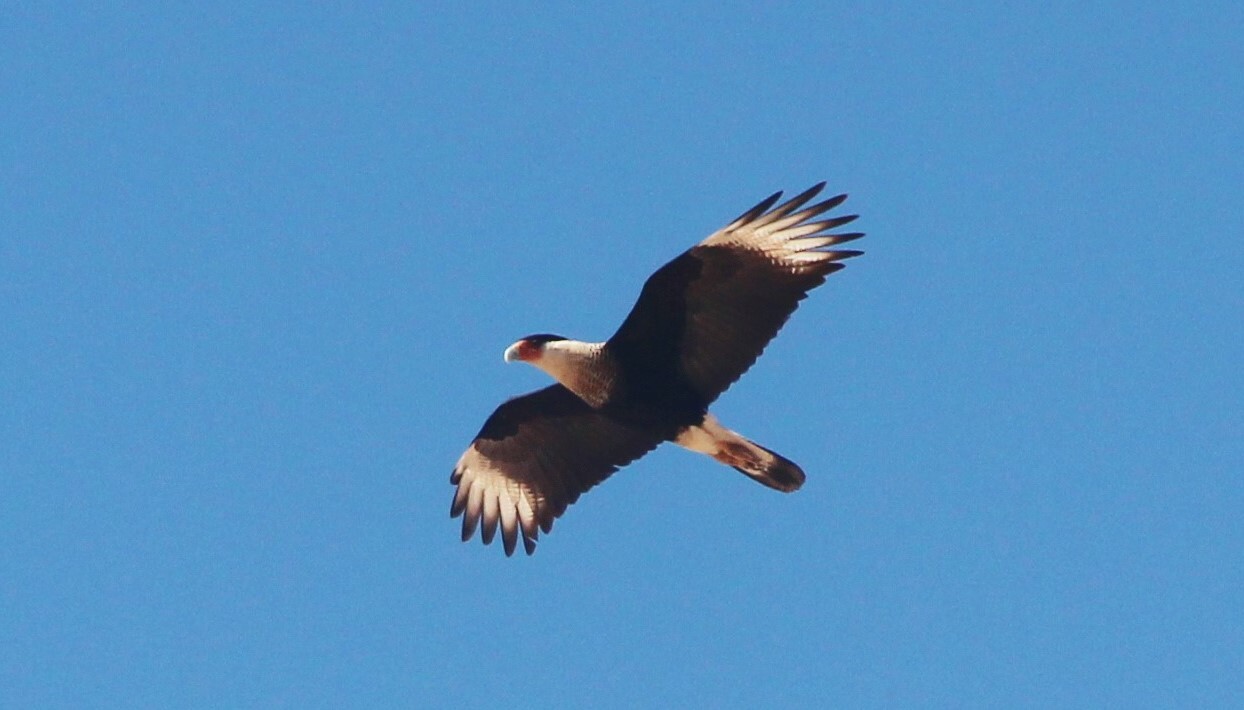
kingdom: Animalia
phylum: Chordata
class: Aves
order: Falconiformes
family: Falconidae
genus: Caracara
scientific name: Caracara plancus
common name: Southern caracara
